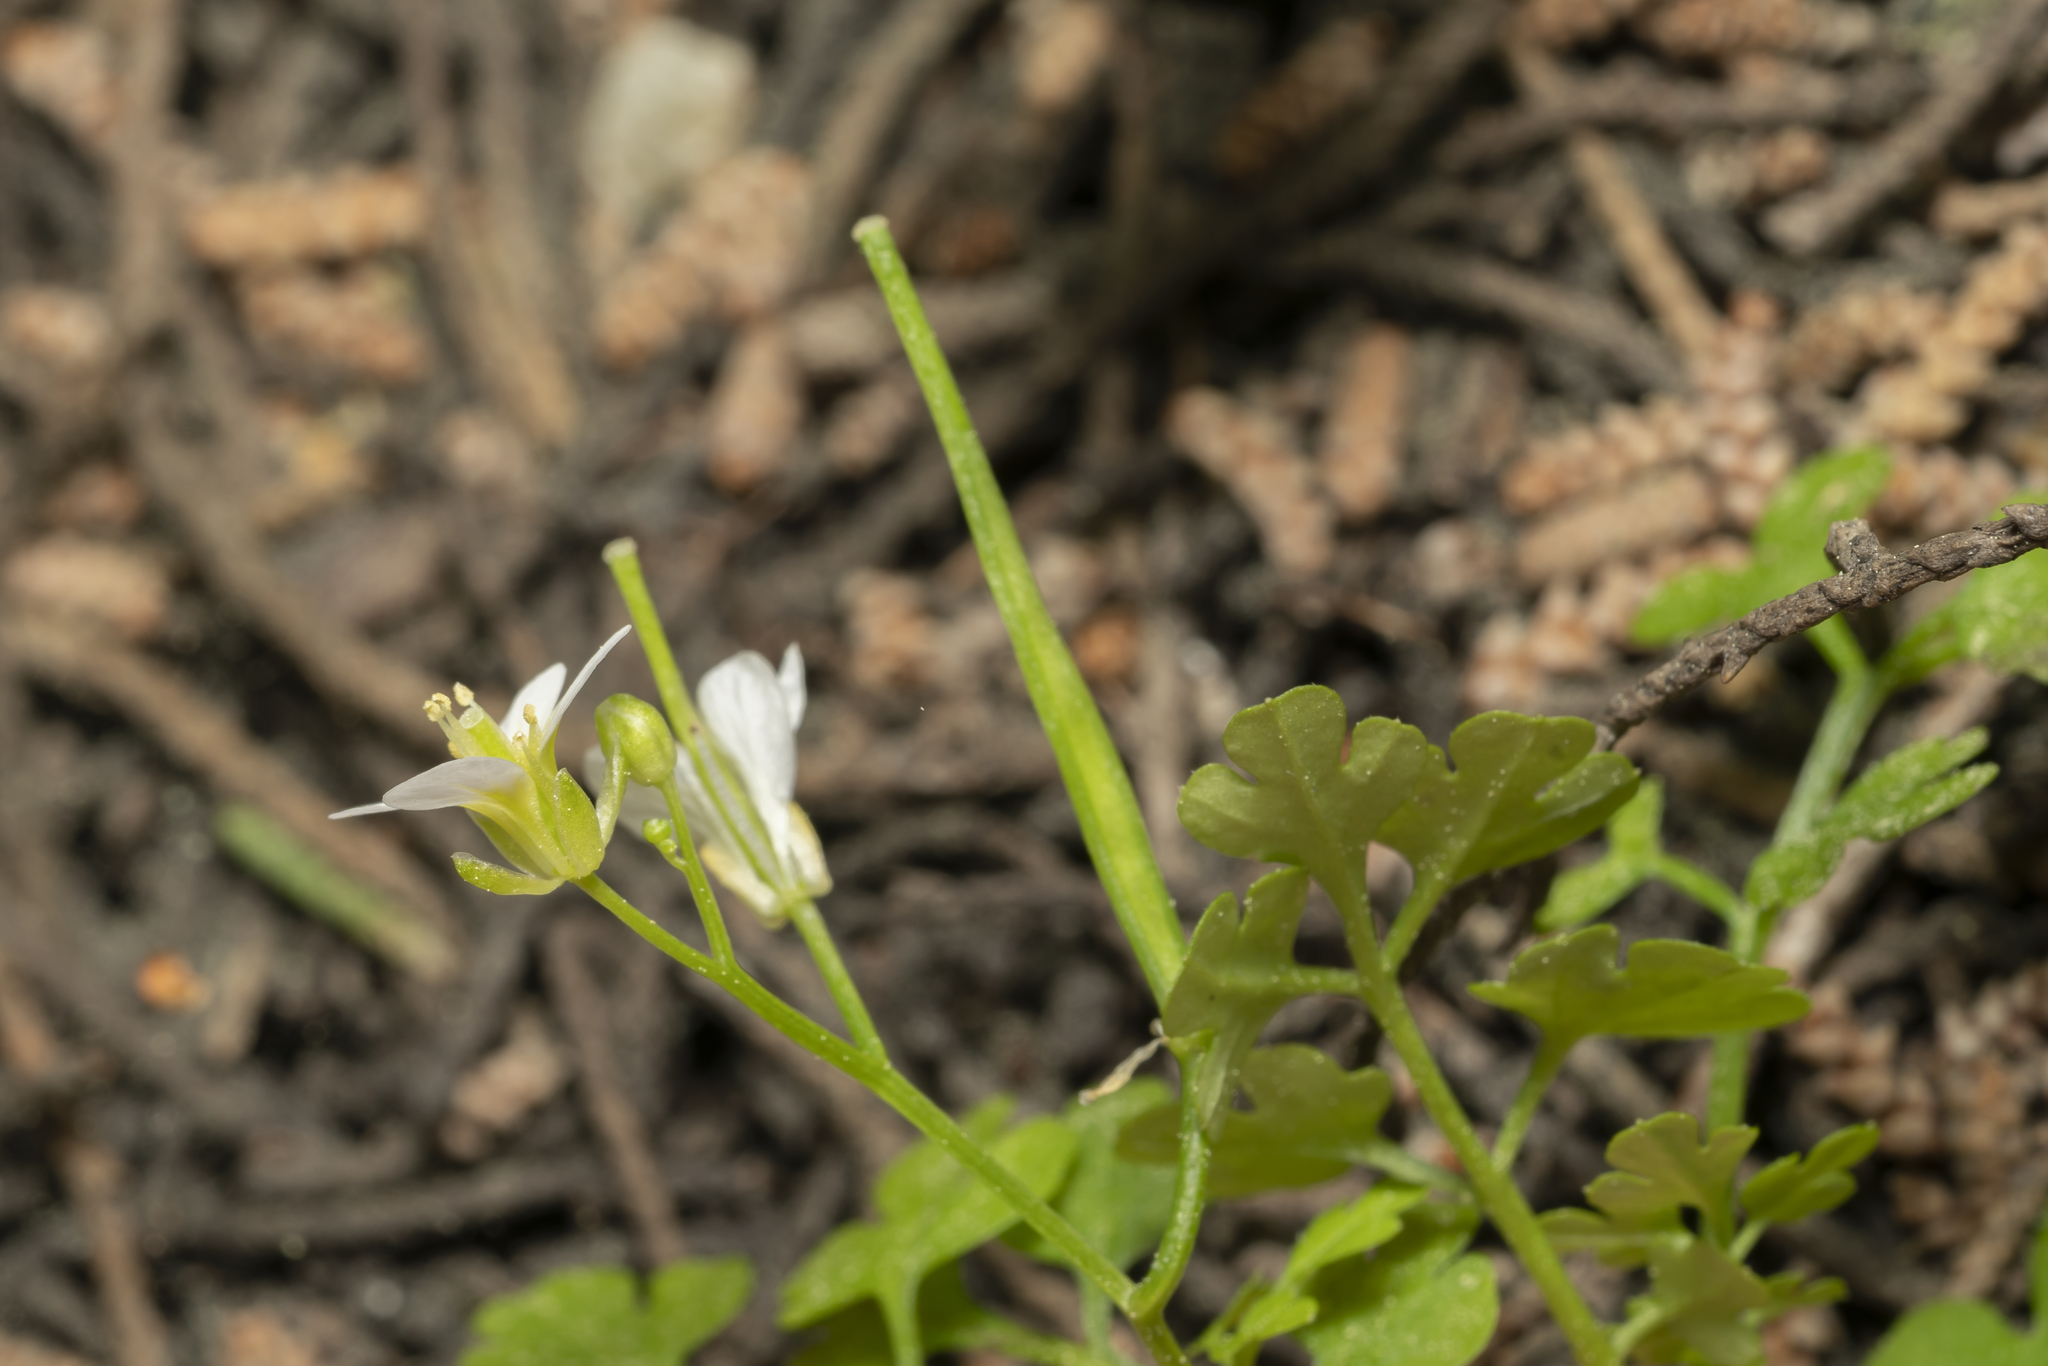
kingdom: Plantae
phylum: Tracheophyta
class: Magnoliopsida
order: Brassicales
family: Brassicaceae
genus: Cardamine
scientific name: Cardamine graeca
